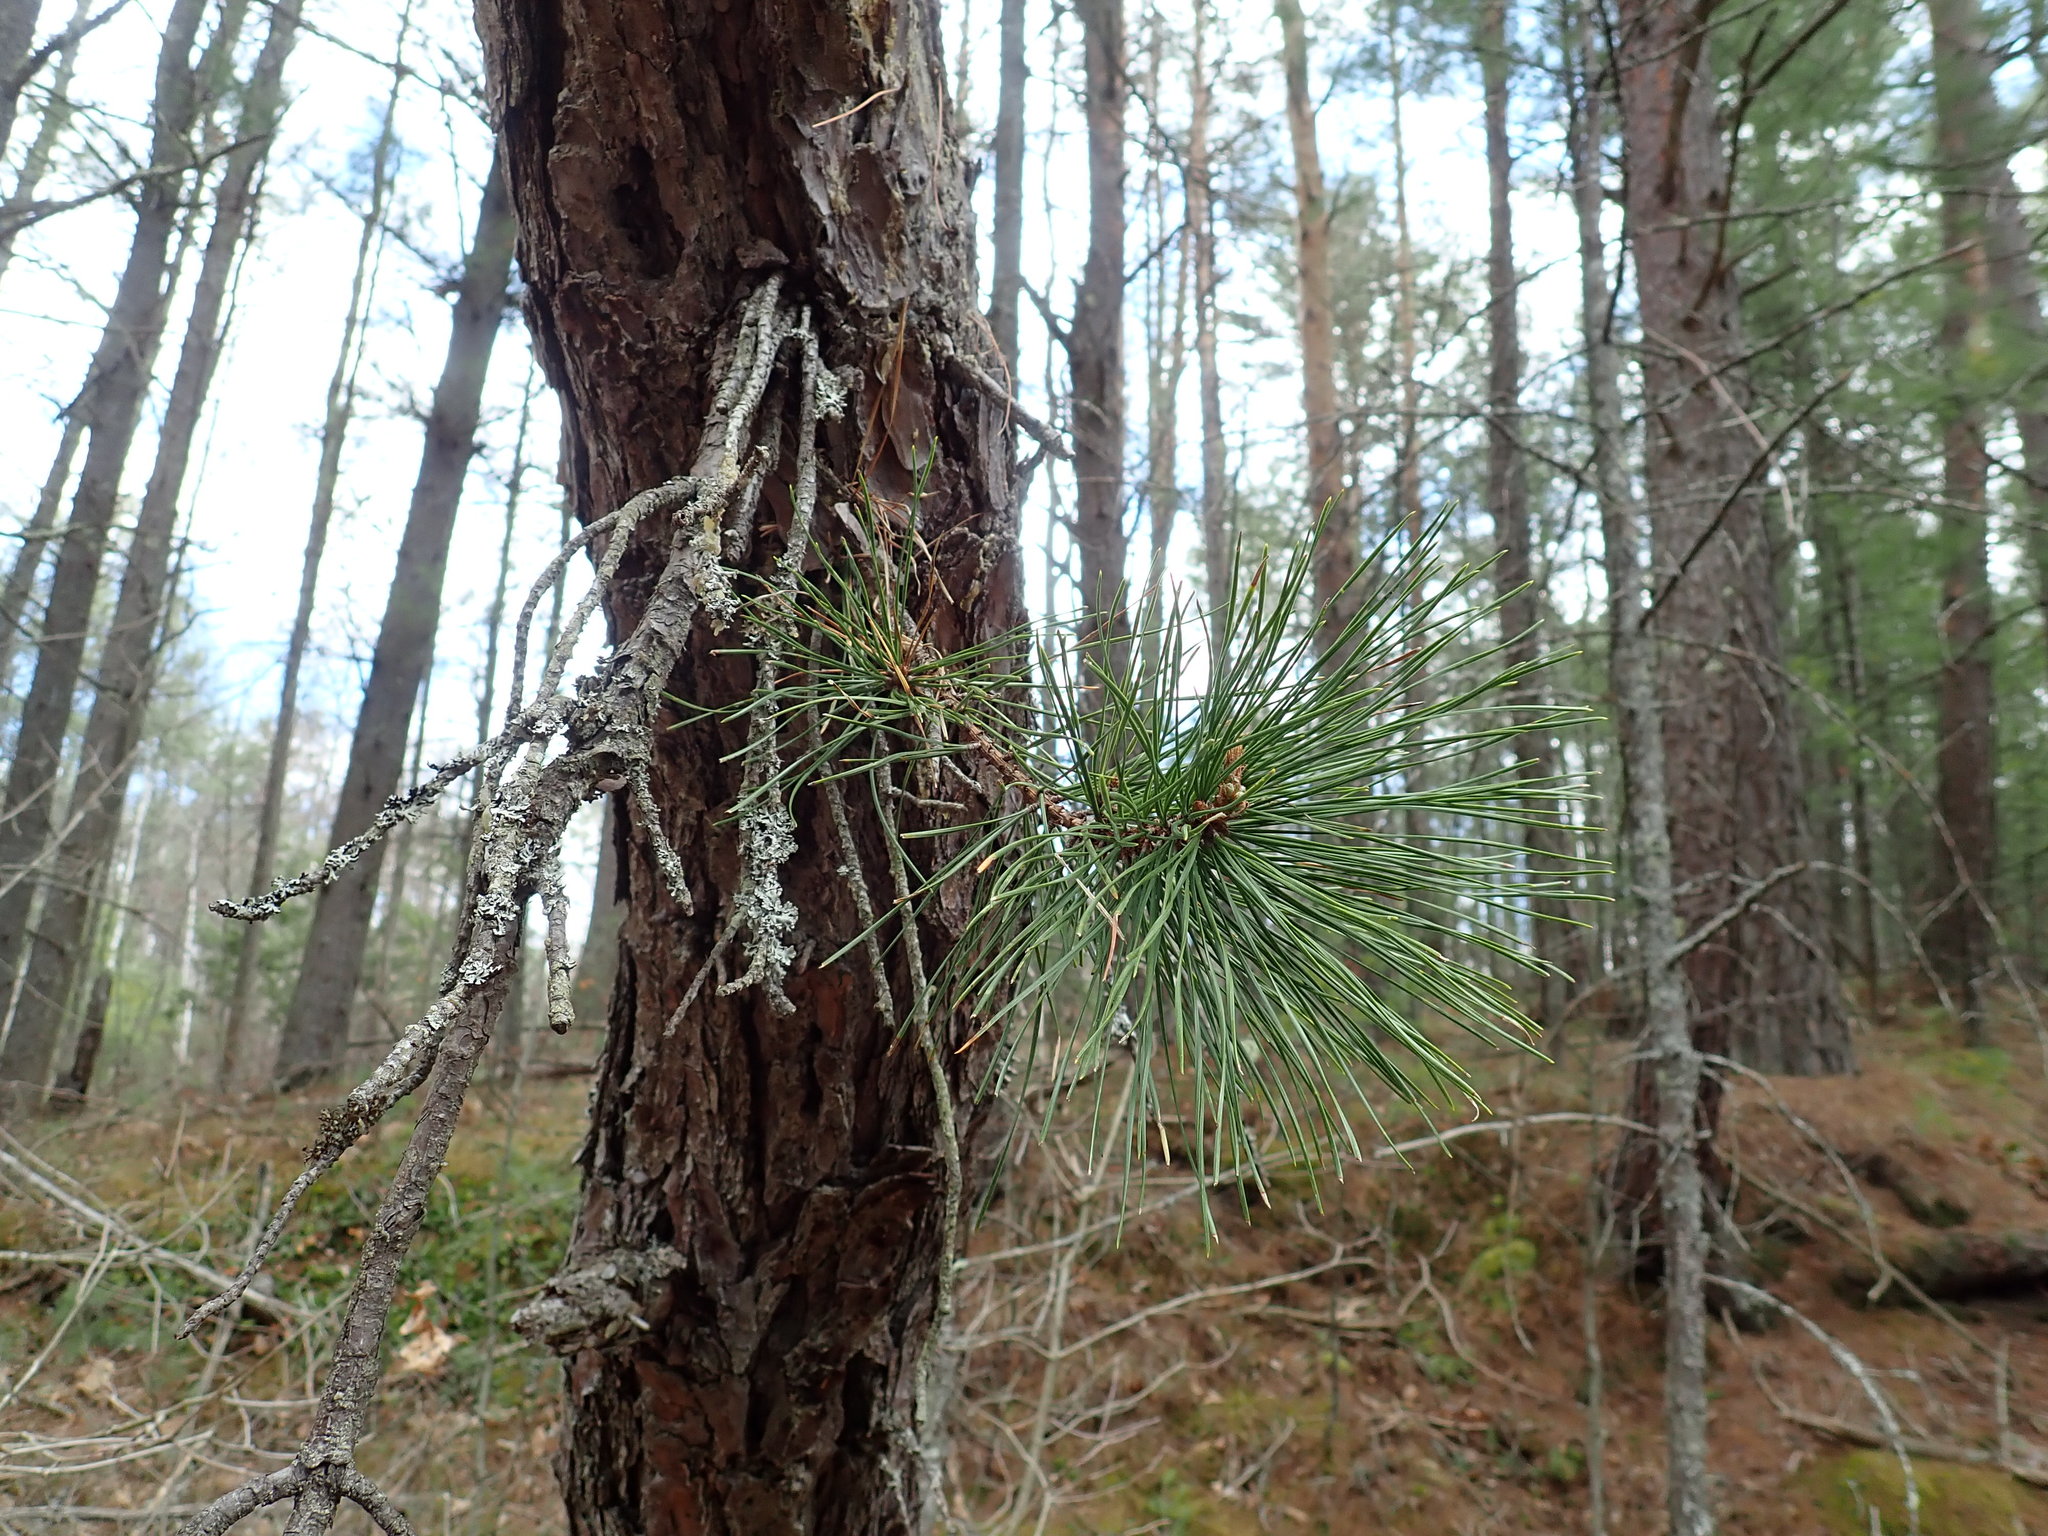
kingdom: Plantae
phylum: Tracheophyta
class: Pinopsida
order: Pinales
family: Pinaceae
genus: Pinus
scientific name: Pinus rigida
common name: Pitch pine
